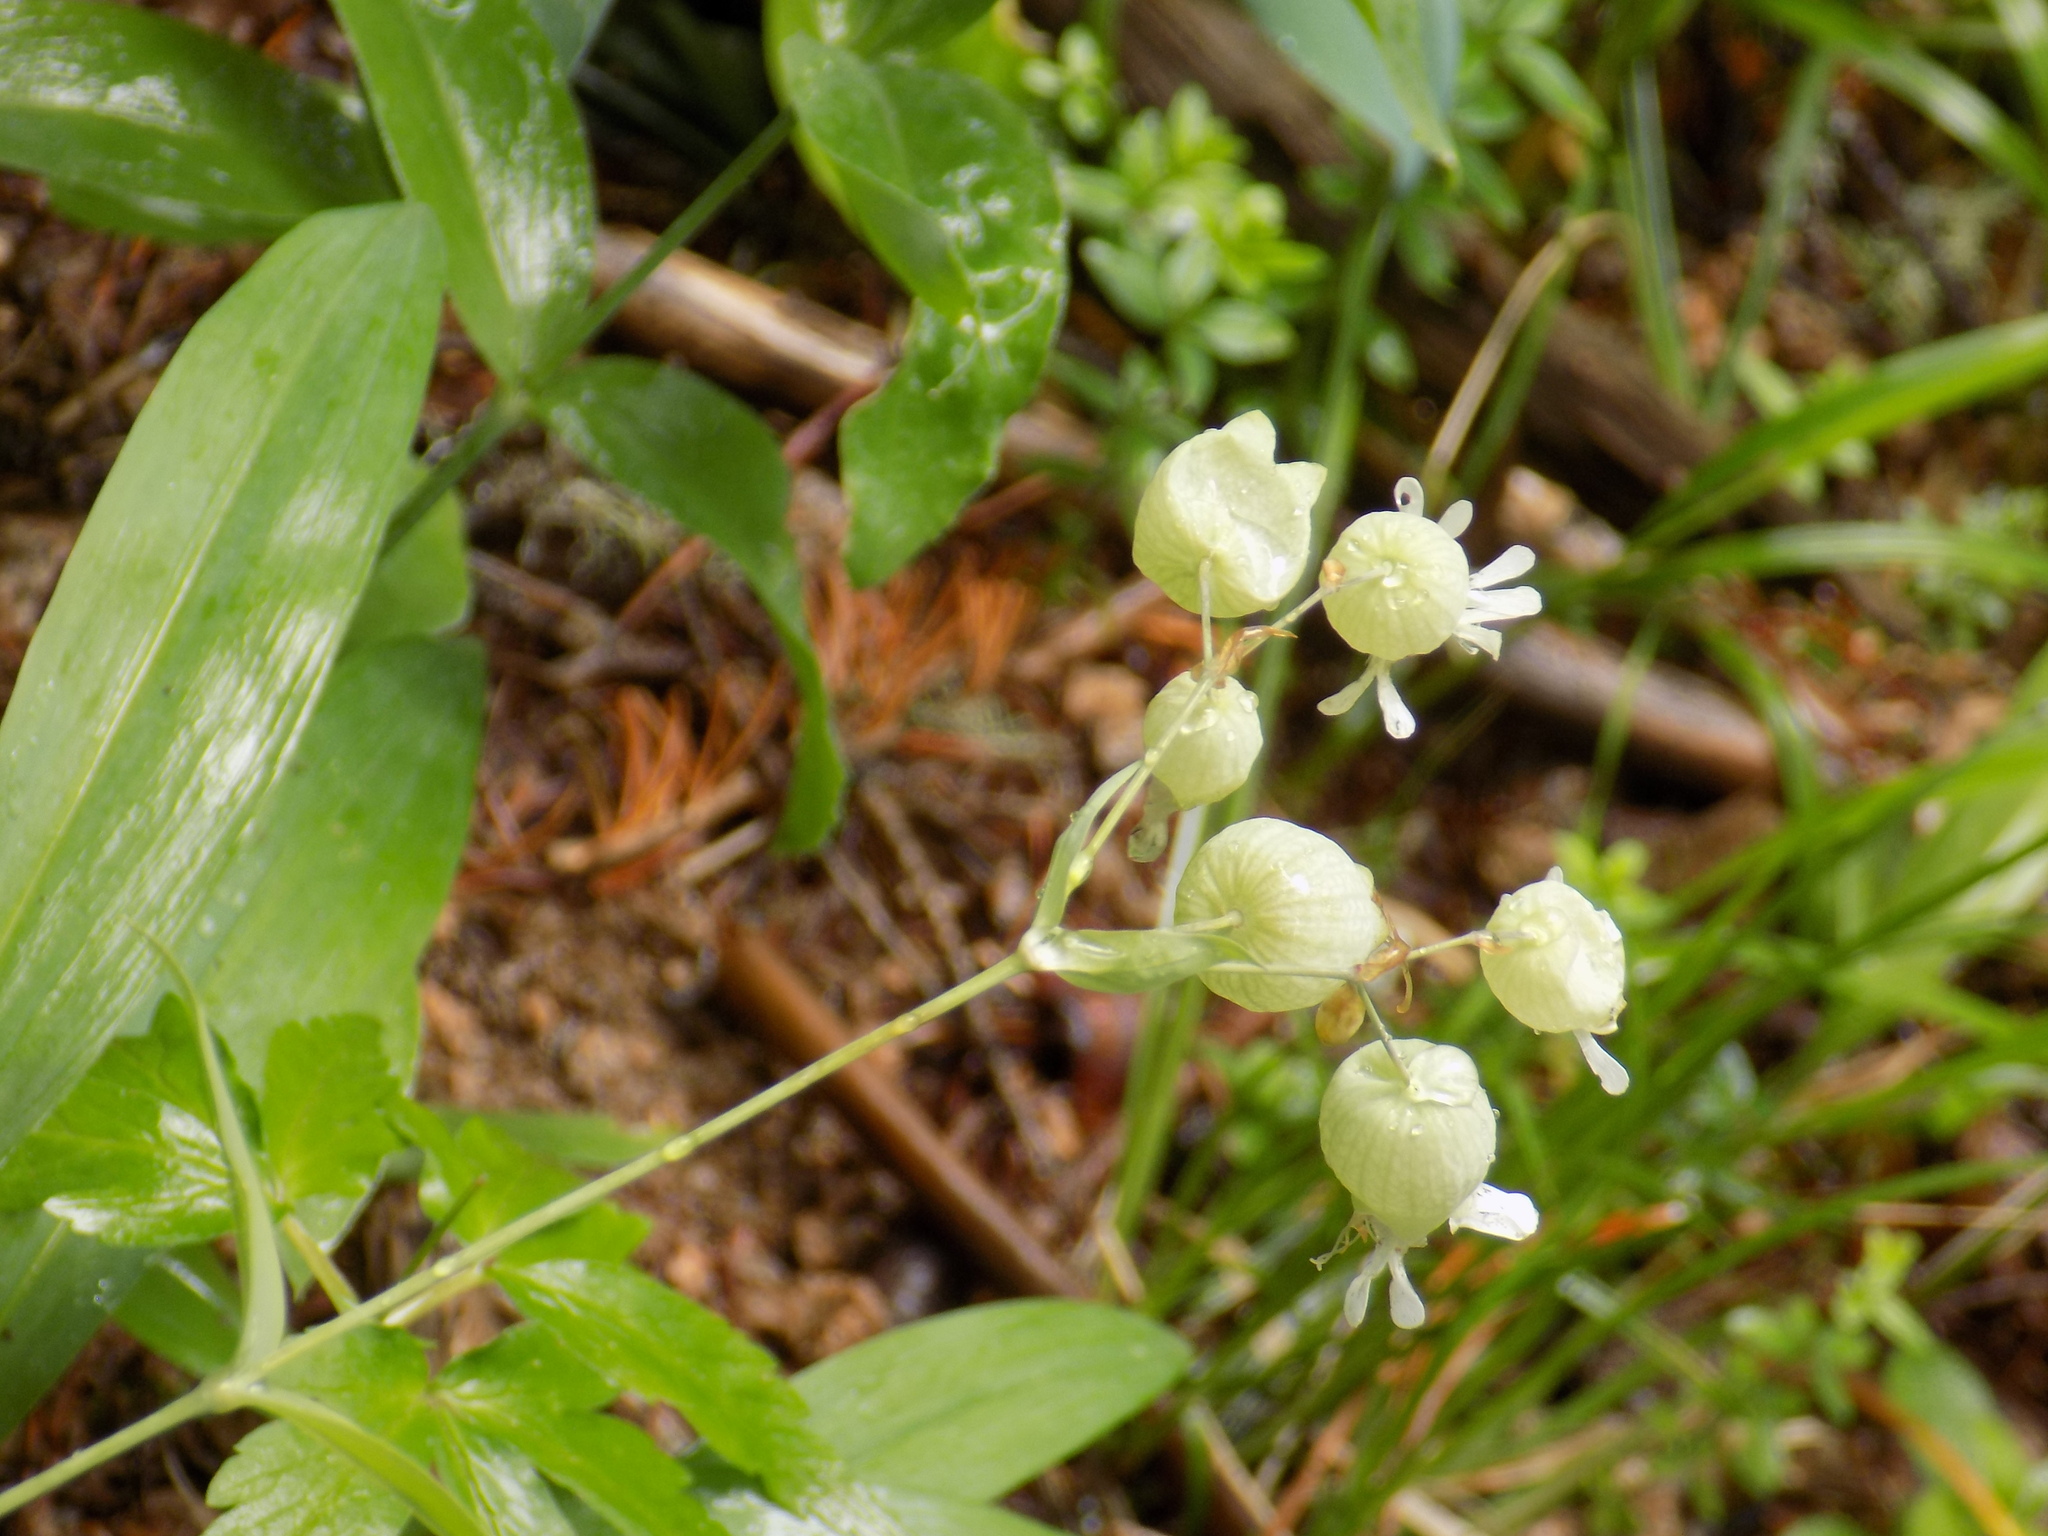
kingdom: Plantae
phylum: Tracheophyta
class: Magnoliopsida
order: Caryophyllales
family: Caryophyllaceae
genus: Silene
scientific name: Silene vulgaris
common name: Bladder campion
